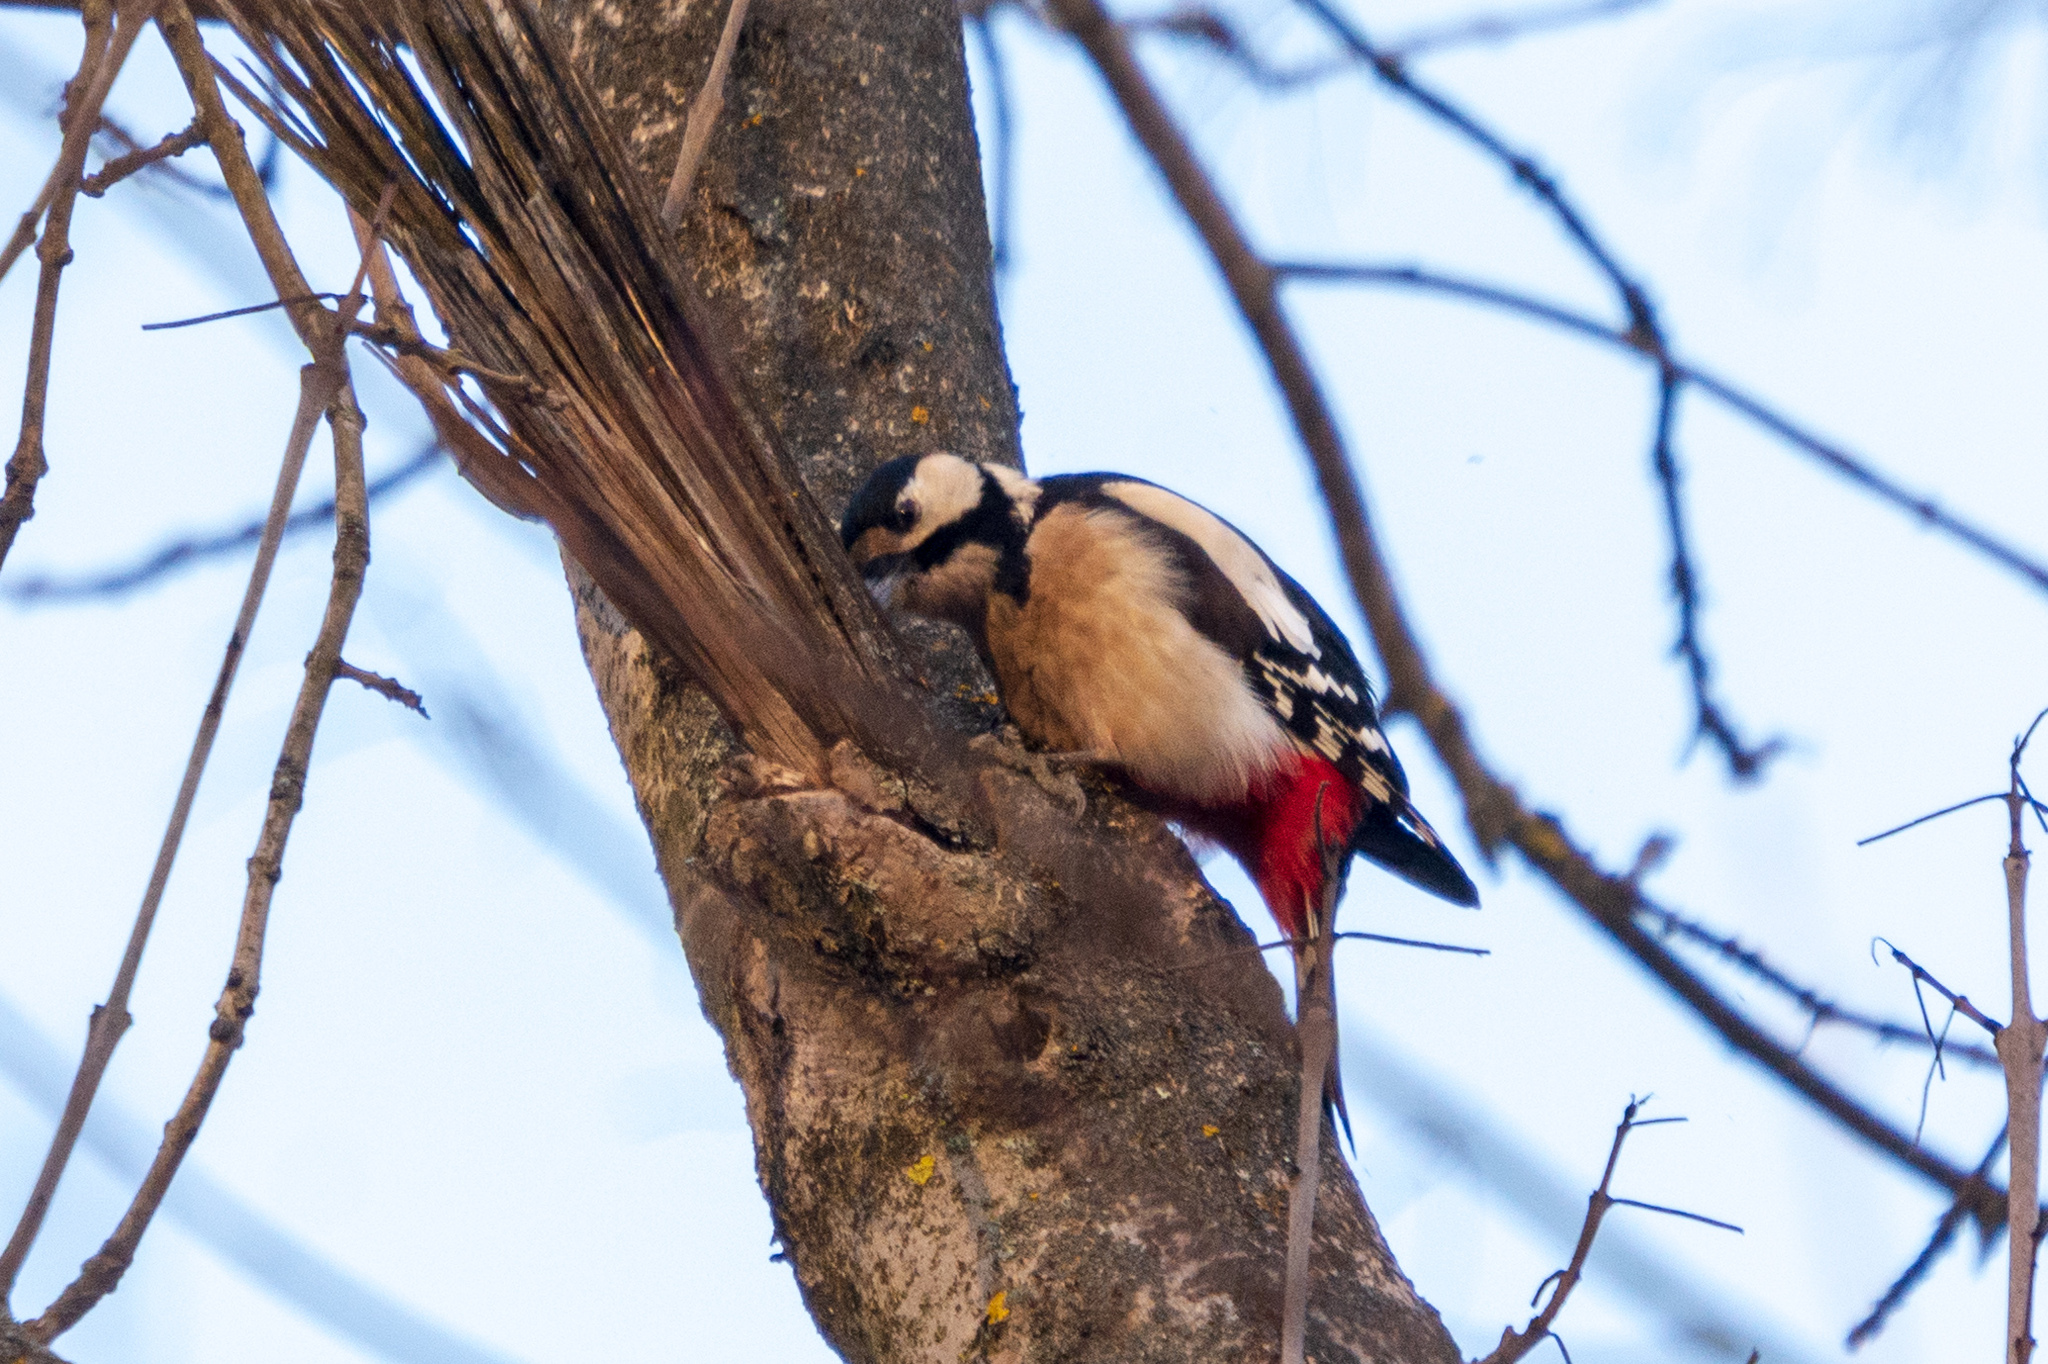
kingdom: Animalia
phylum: Chordata
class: Aves
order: Piciformes
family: Picidae
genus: Dendrocopos
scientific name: Dendrocopos major
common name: Great spotted woodpecker
